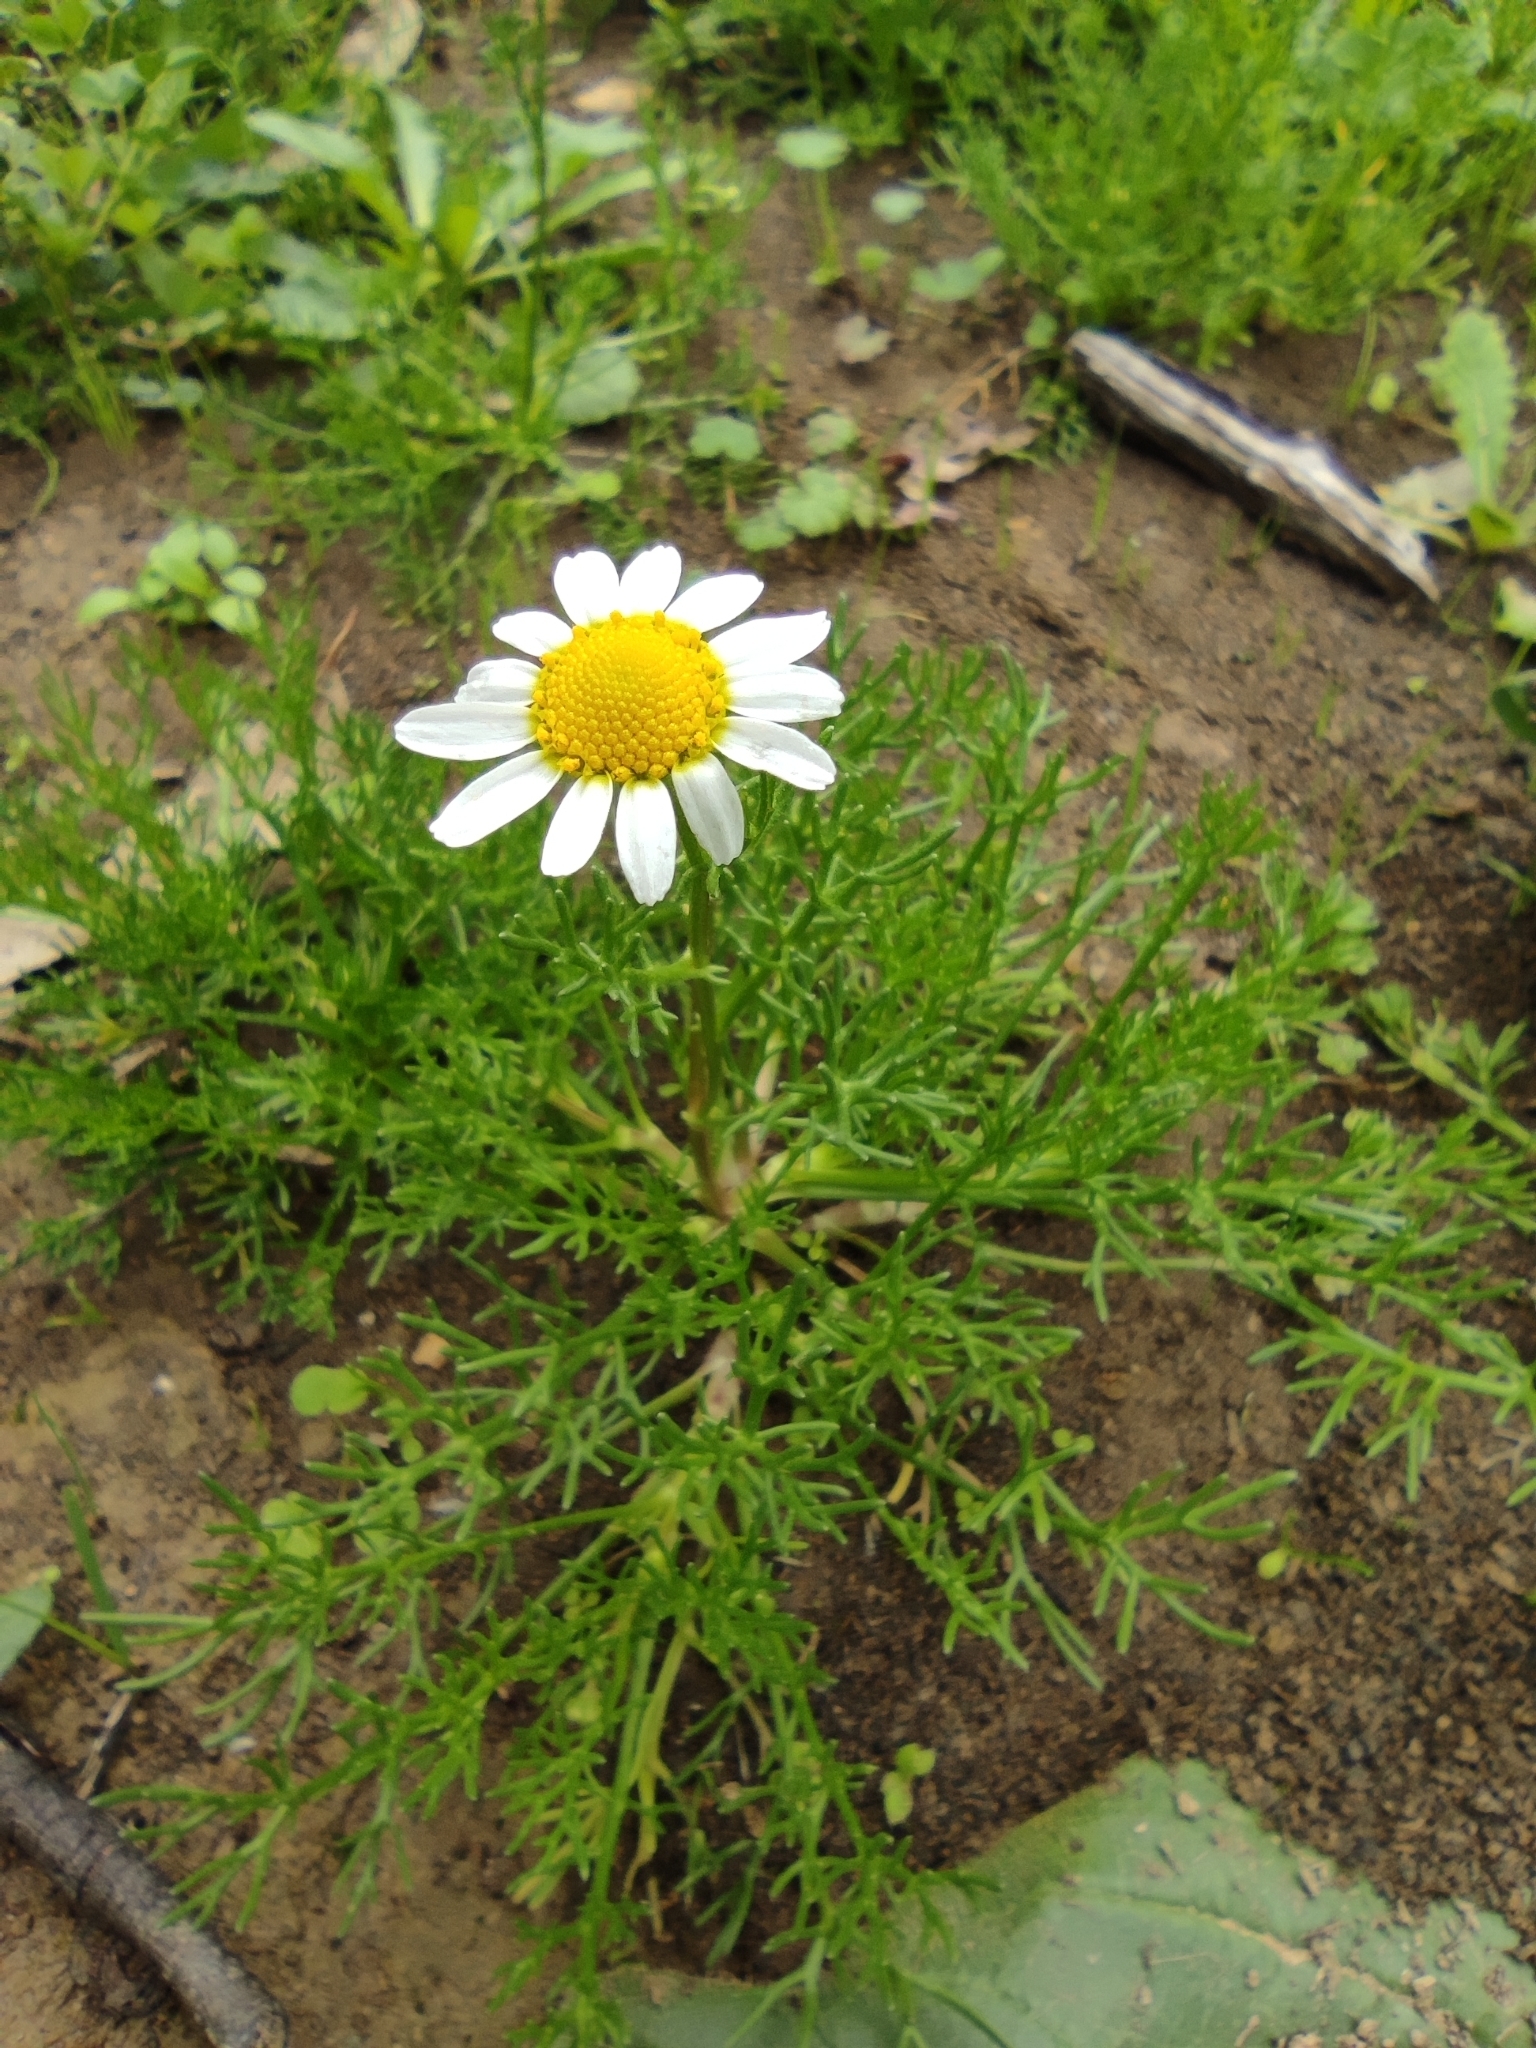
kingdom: Plantae
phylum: Tracheophyta
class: Magnoliopsida
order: Asterales
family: Asteraceae
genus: Chamaemelum
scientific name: Chamaemelum fuscatum
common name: Chamomile
